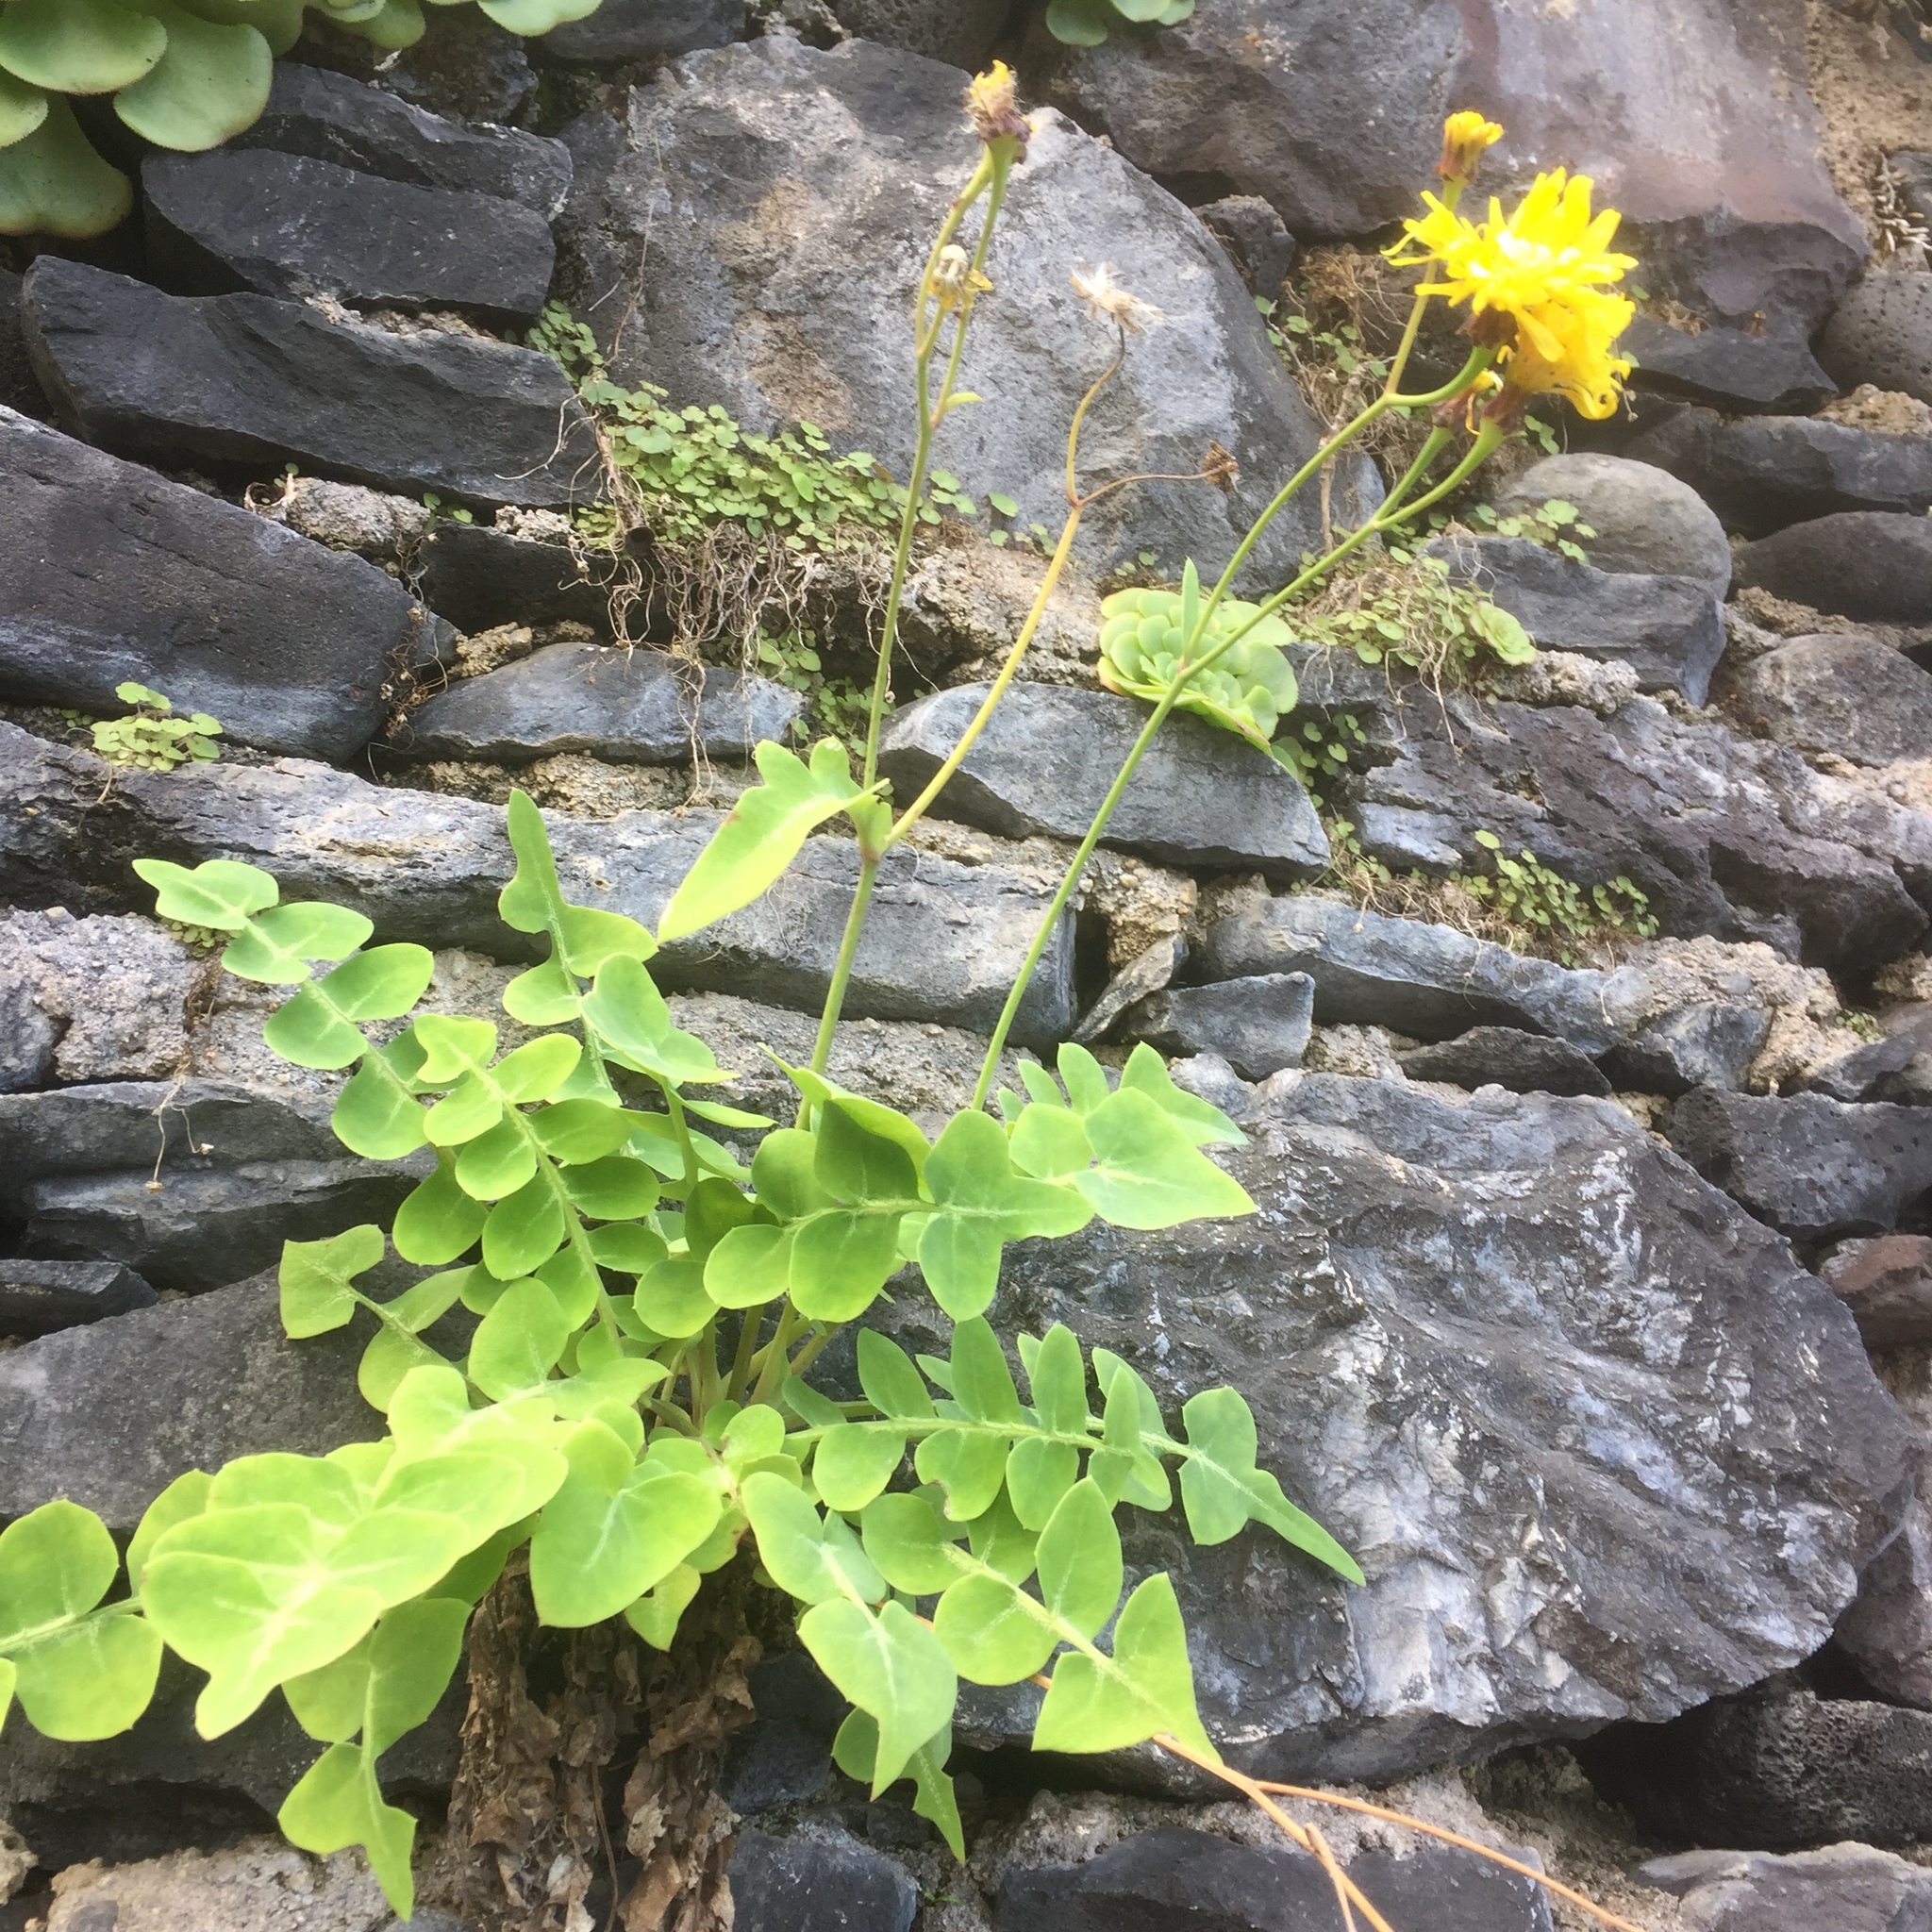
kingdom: Plantae
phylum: Tracheophyta
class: Magnoliopsida
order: Asterales
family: Asteraceae
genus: Sonchus
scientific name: Sonchus latifolius
